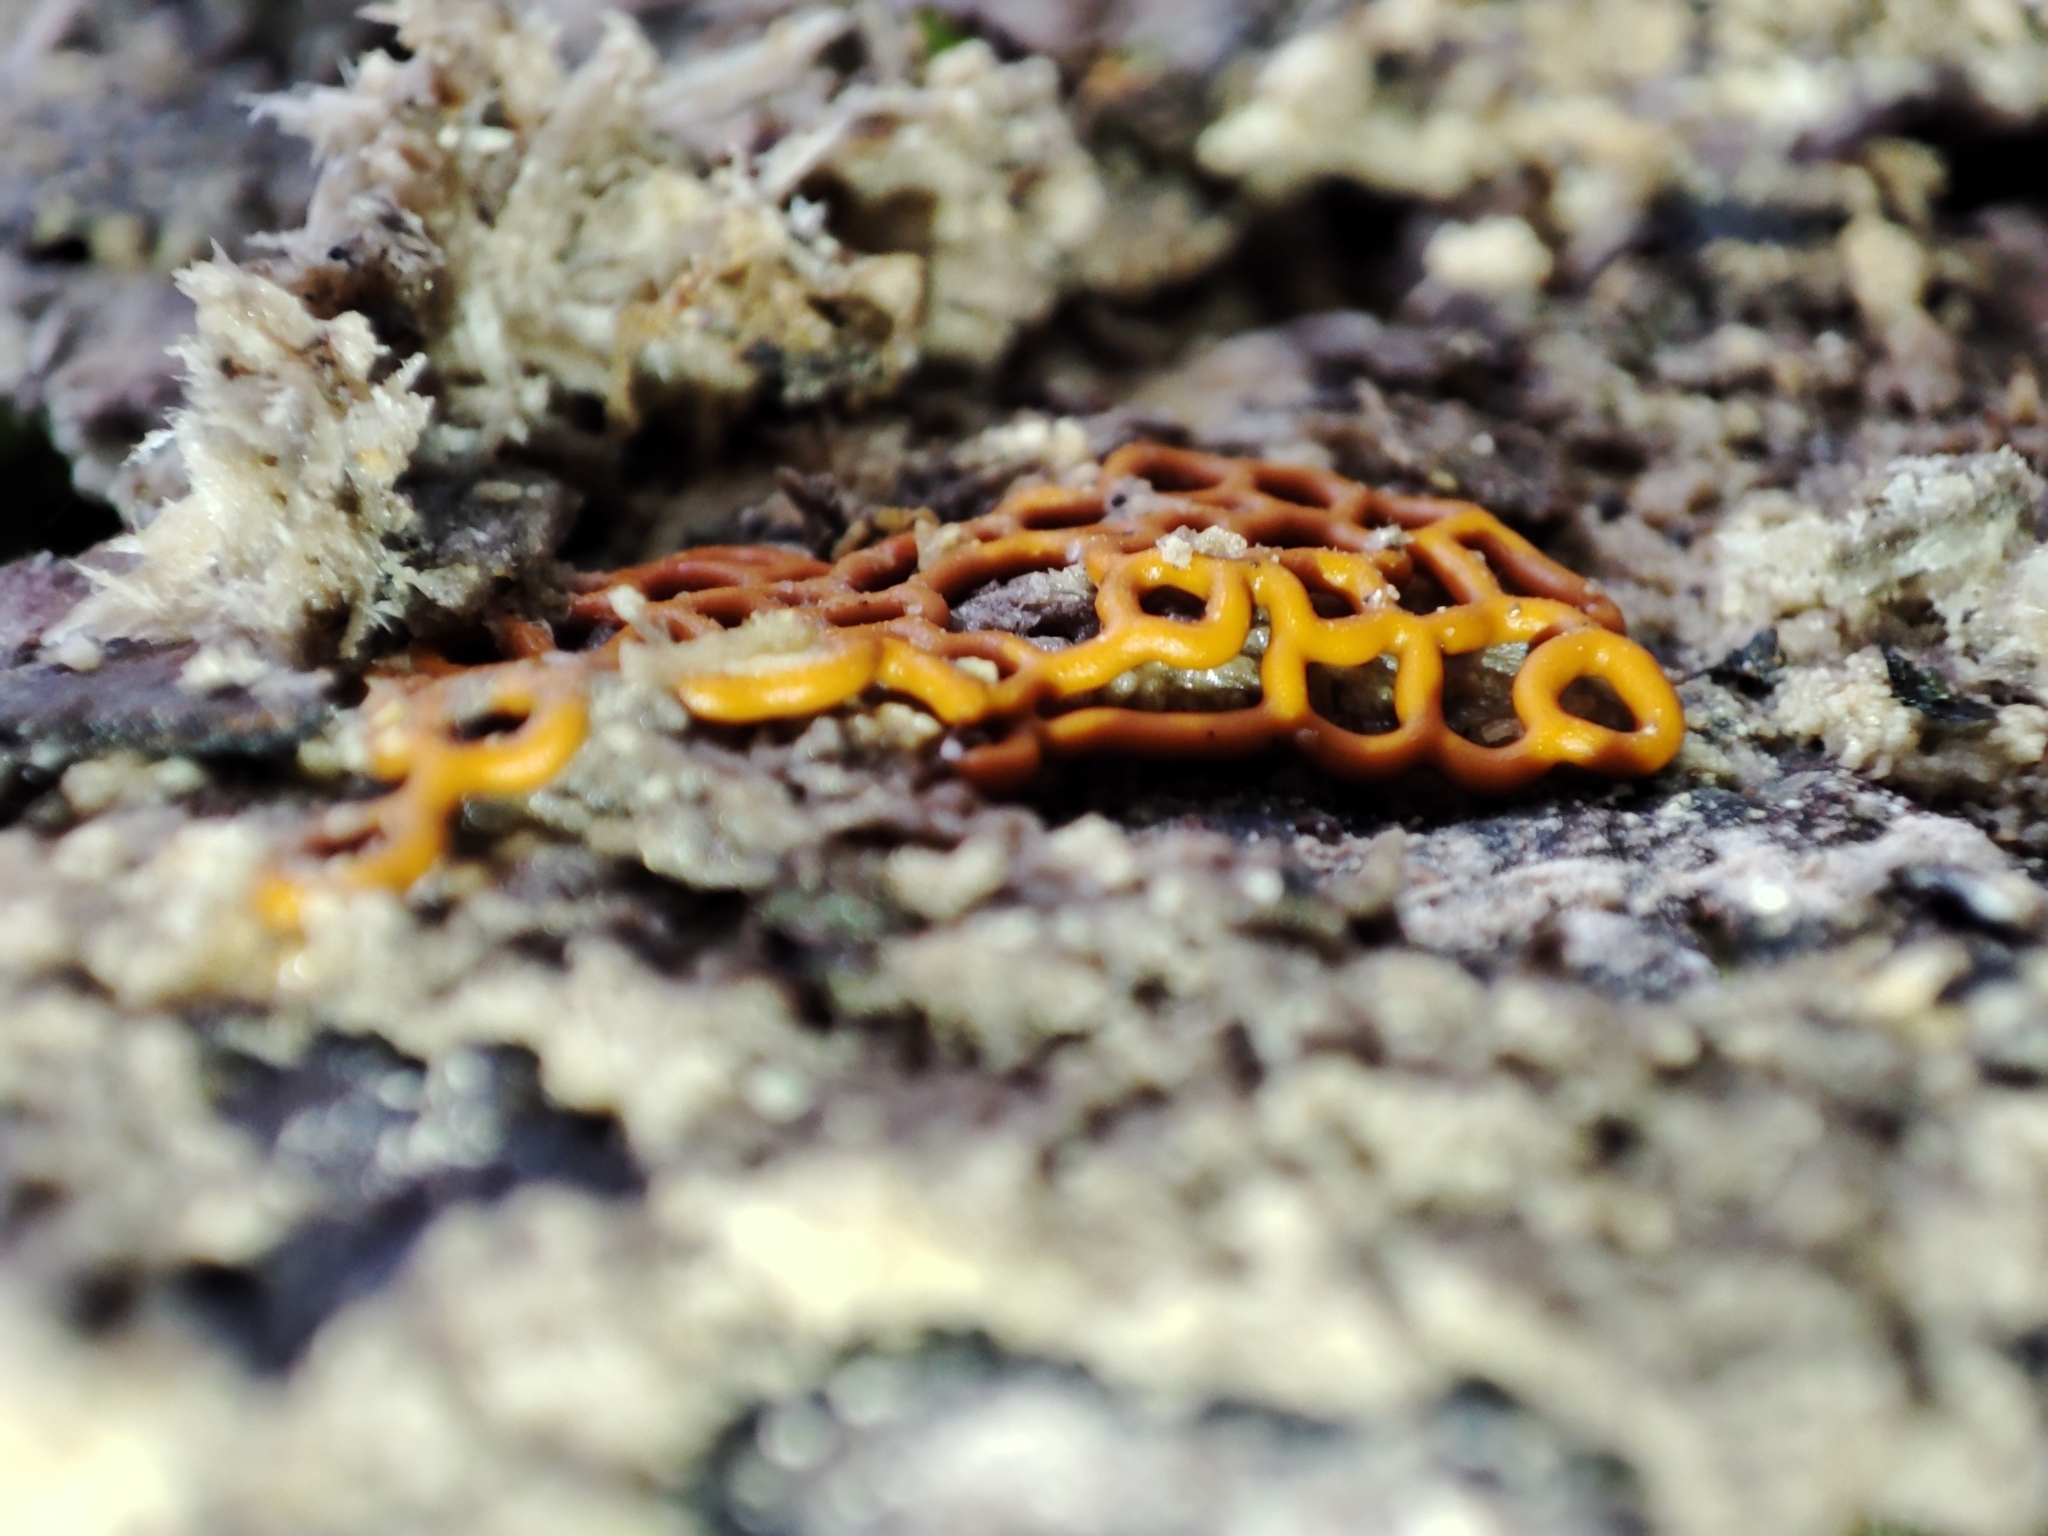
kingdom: Protozoa
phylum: Mycetozoa
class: Myxomycetes
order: Trichiales
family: Arcyriaceae
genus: Hemitrichia
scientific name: Hemitrichia serpula
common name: Pretzel slime mold
